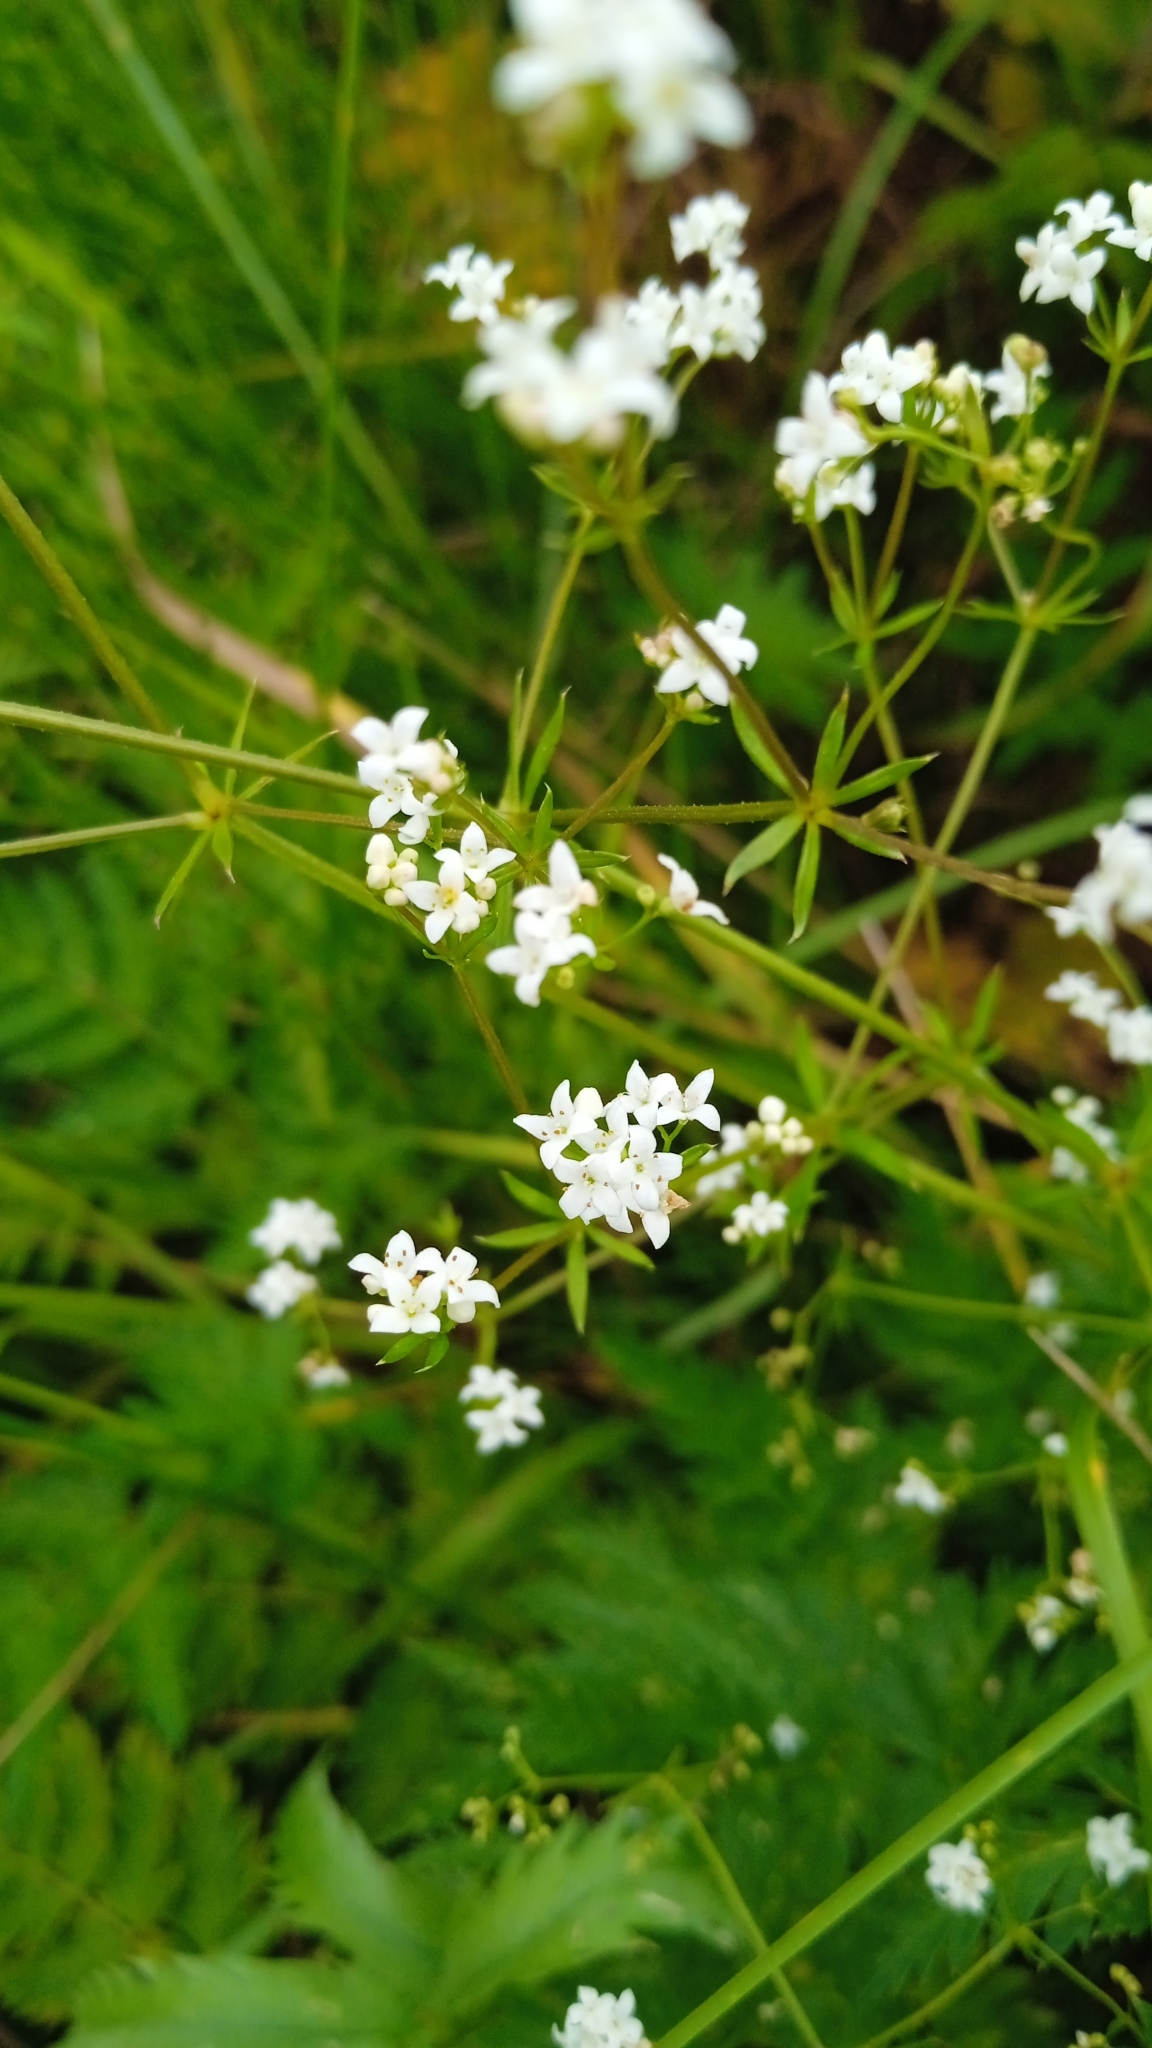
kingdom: Plantae
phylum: Tracheophyta
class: Magnoliopsida
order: Gentianales
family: Rubiaceae
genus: Galium
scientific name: Galium uliginosum
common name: Fen bedstraw
